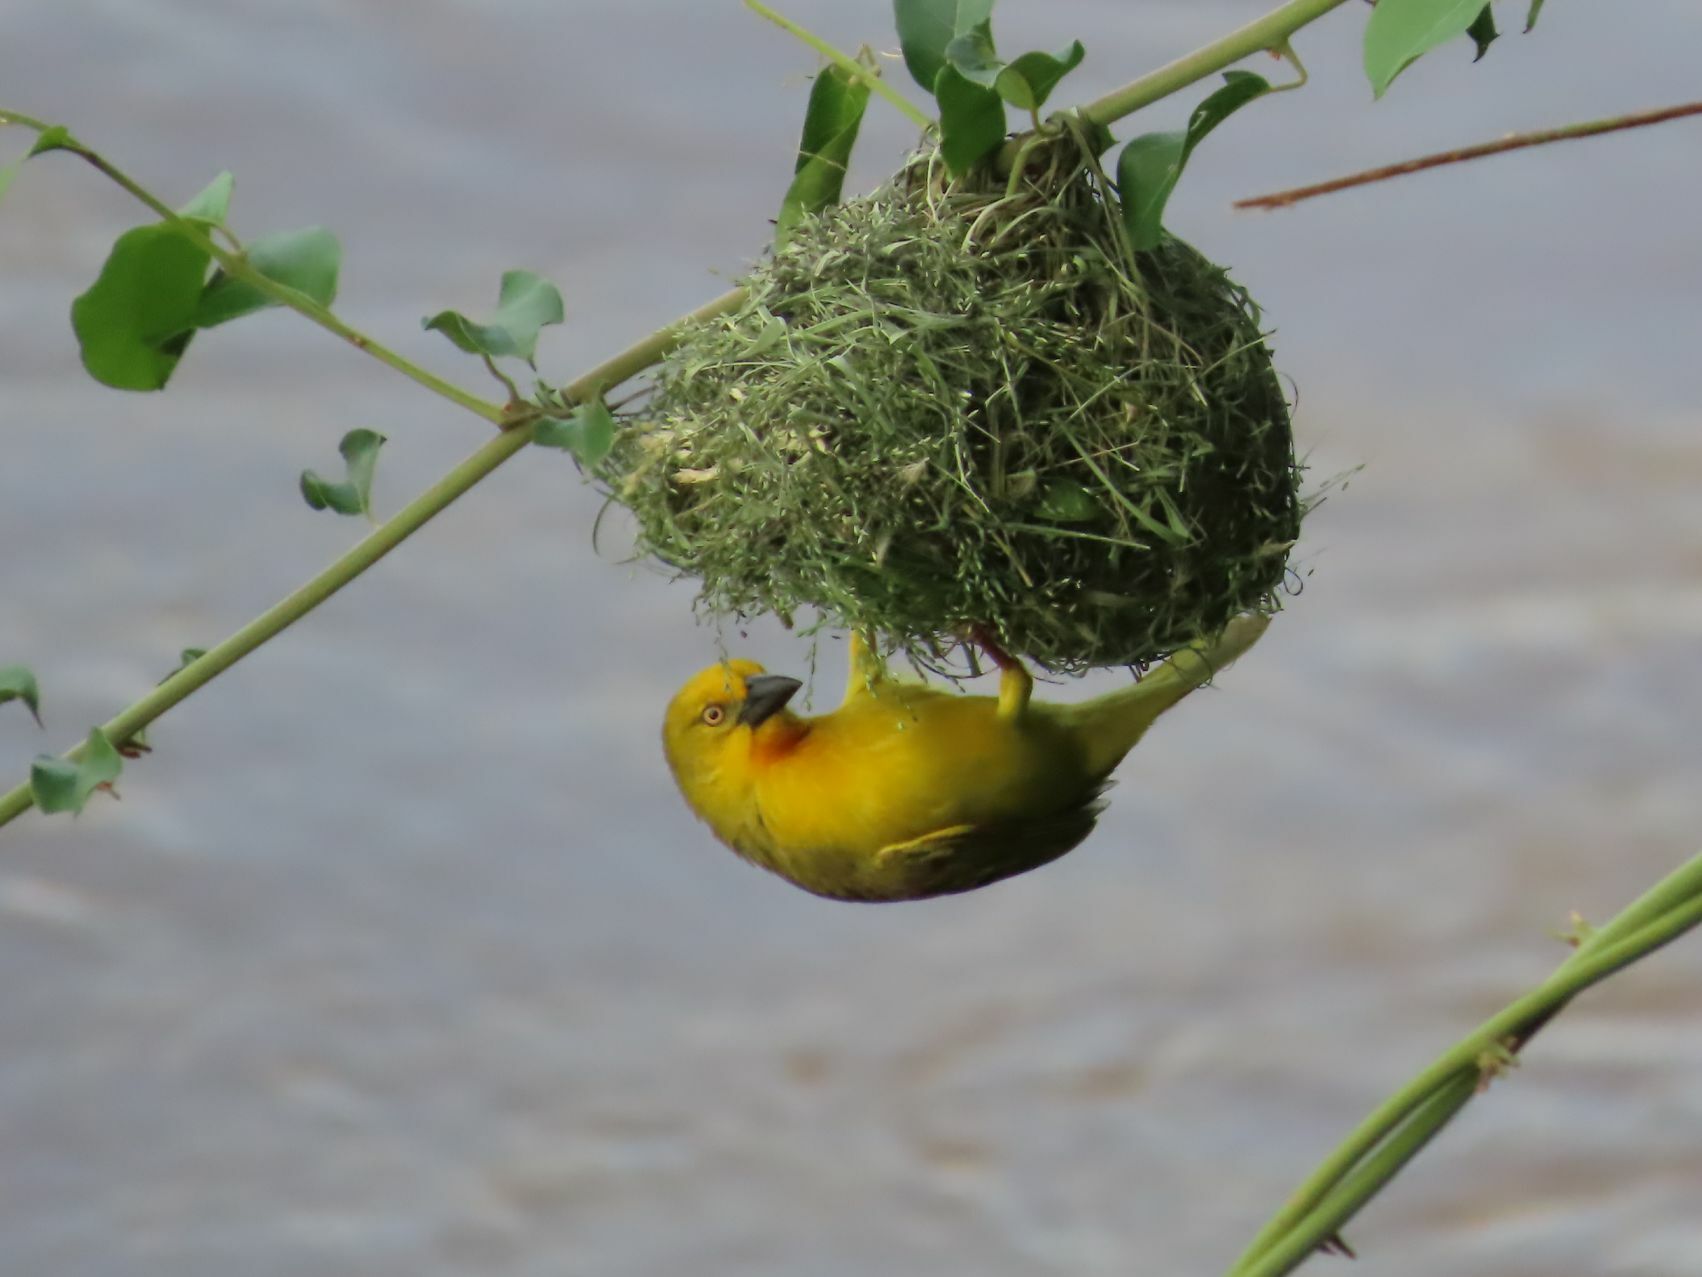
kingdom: Animalia
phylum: Chordata
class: Aves
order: Passeriformes
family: Ploceidae
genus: Ploceus
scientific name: Ploceus xanthops
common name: Holub's golden weaver
